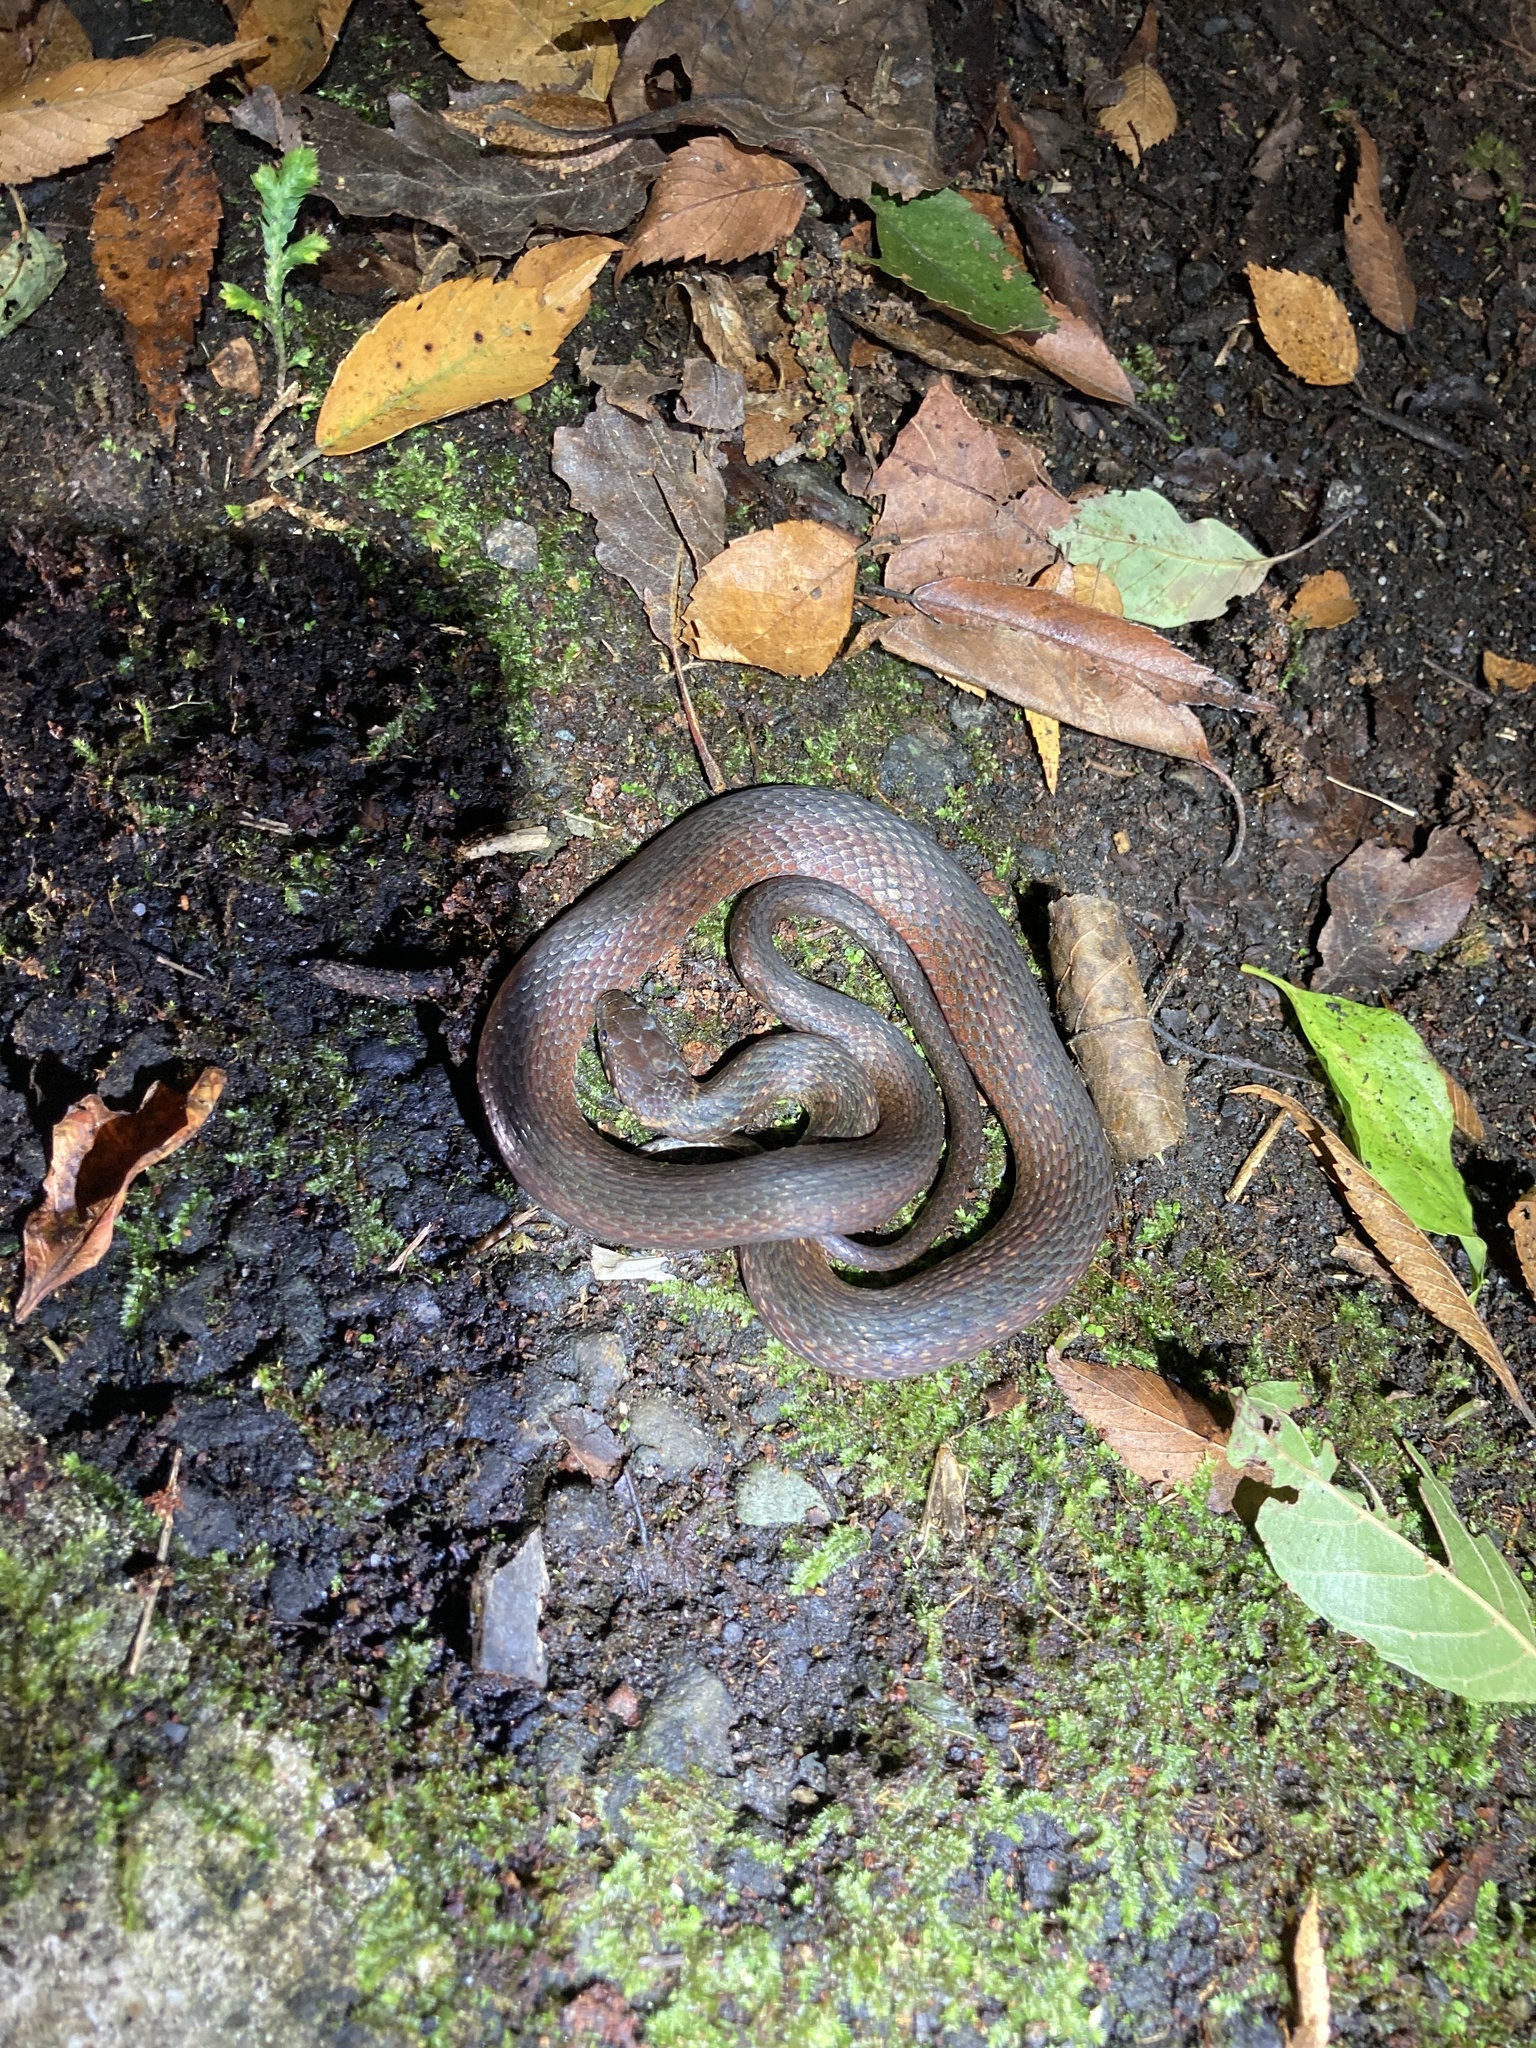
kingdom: Animalia
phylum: Chordata
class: Squamata
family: Colubridae
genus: Hebius
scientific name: Hebius sauteri
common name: Sauter's keelback
